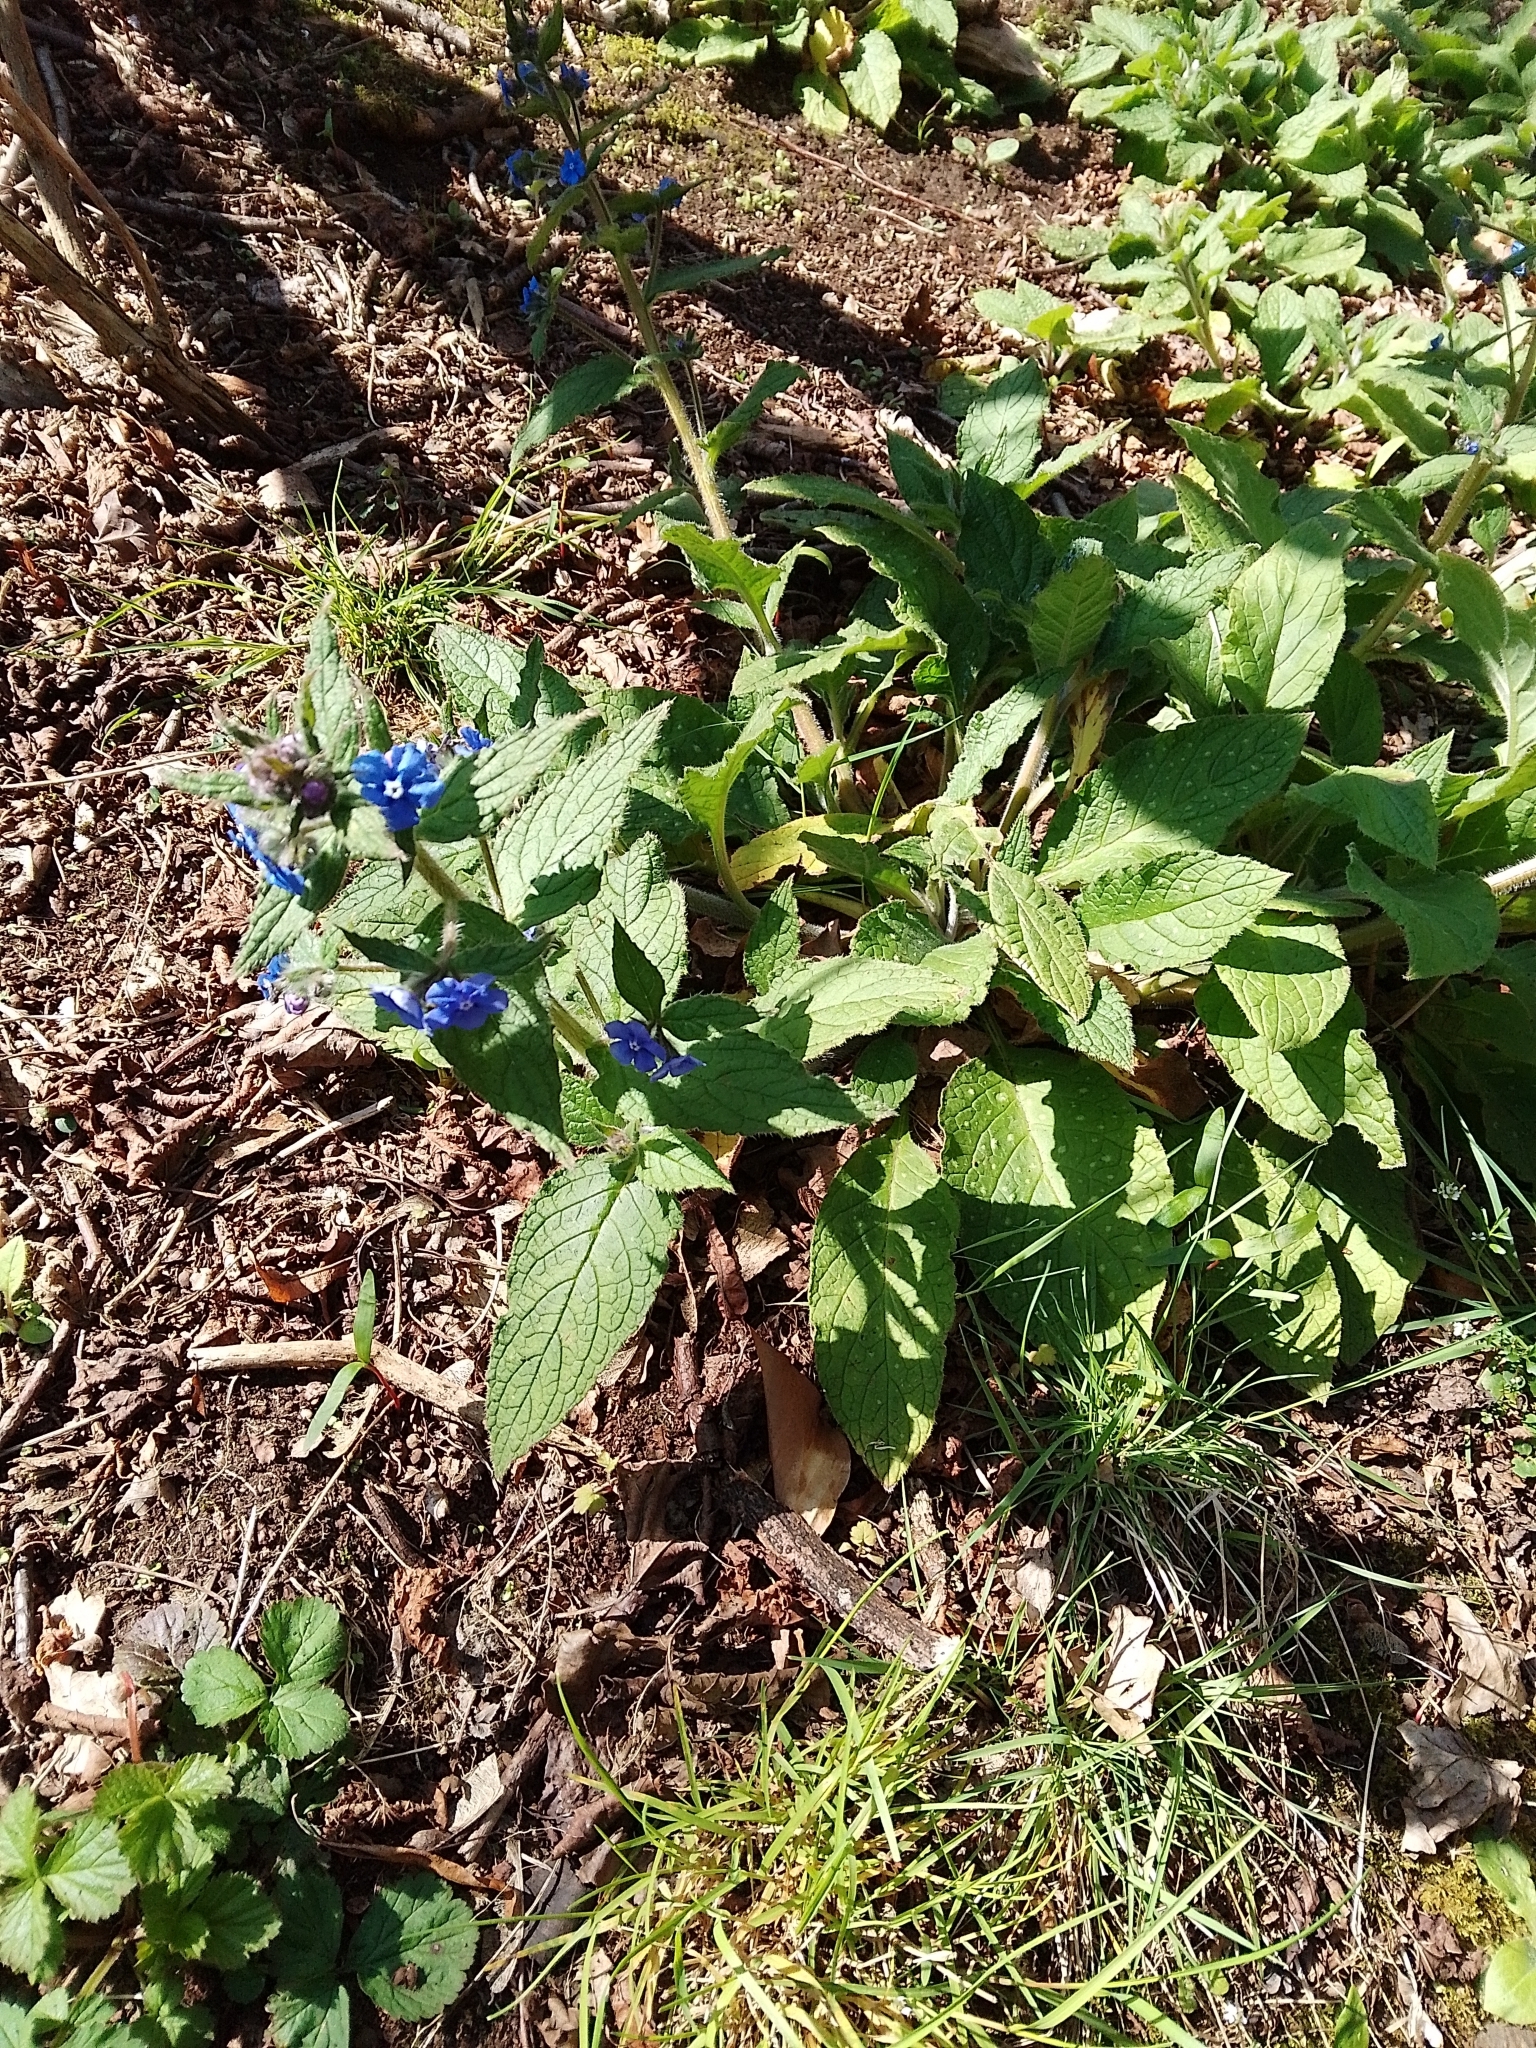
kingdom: Plantae
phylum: Tracheophyta
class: Magnoliopsida
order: Boraginales
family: Boraginaceae
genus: Pentaglottis
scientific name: Pentaglottis sempervirens
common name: Green alkanet
